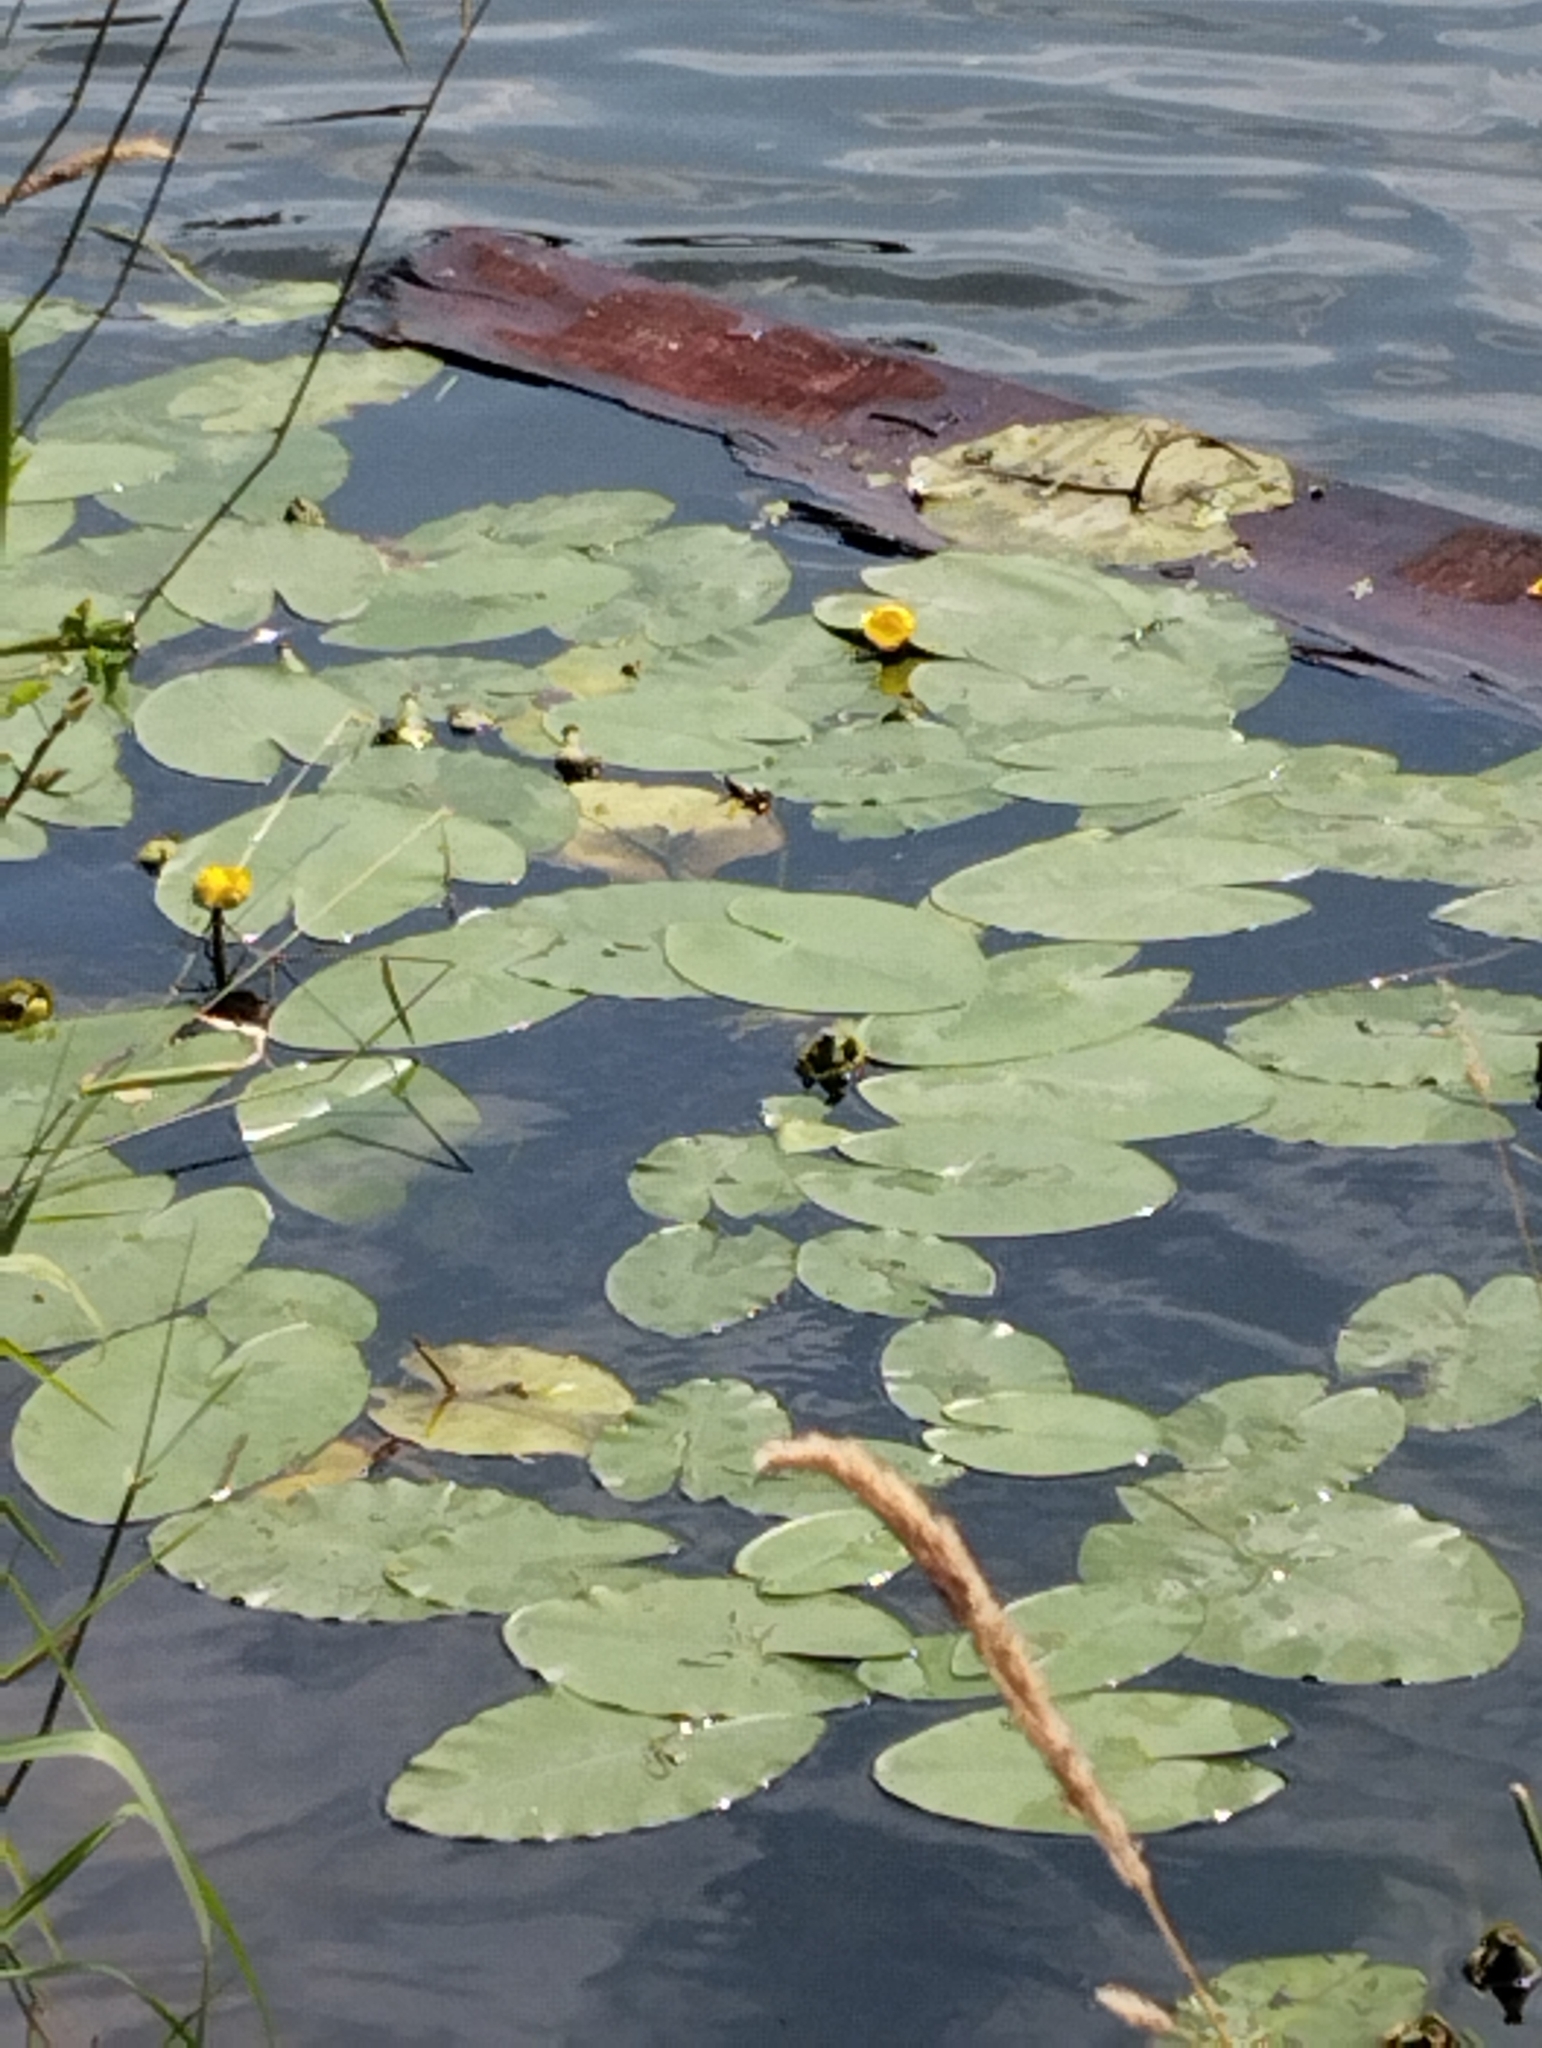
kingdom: Plantae
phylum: Tracheophyta
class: Magnoliopsida
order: Nymphaeales
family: Nymphaeaceae
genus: Nuphar
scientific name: Nuphar lutea
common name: Yellow water-lily
